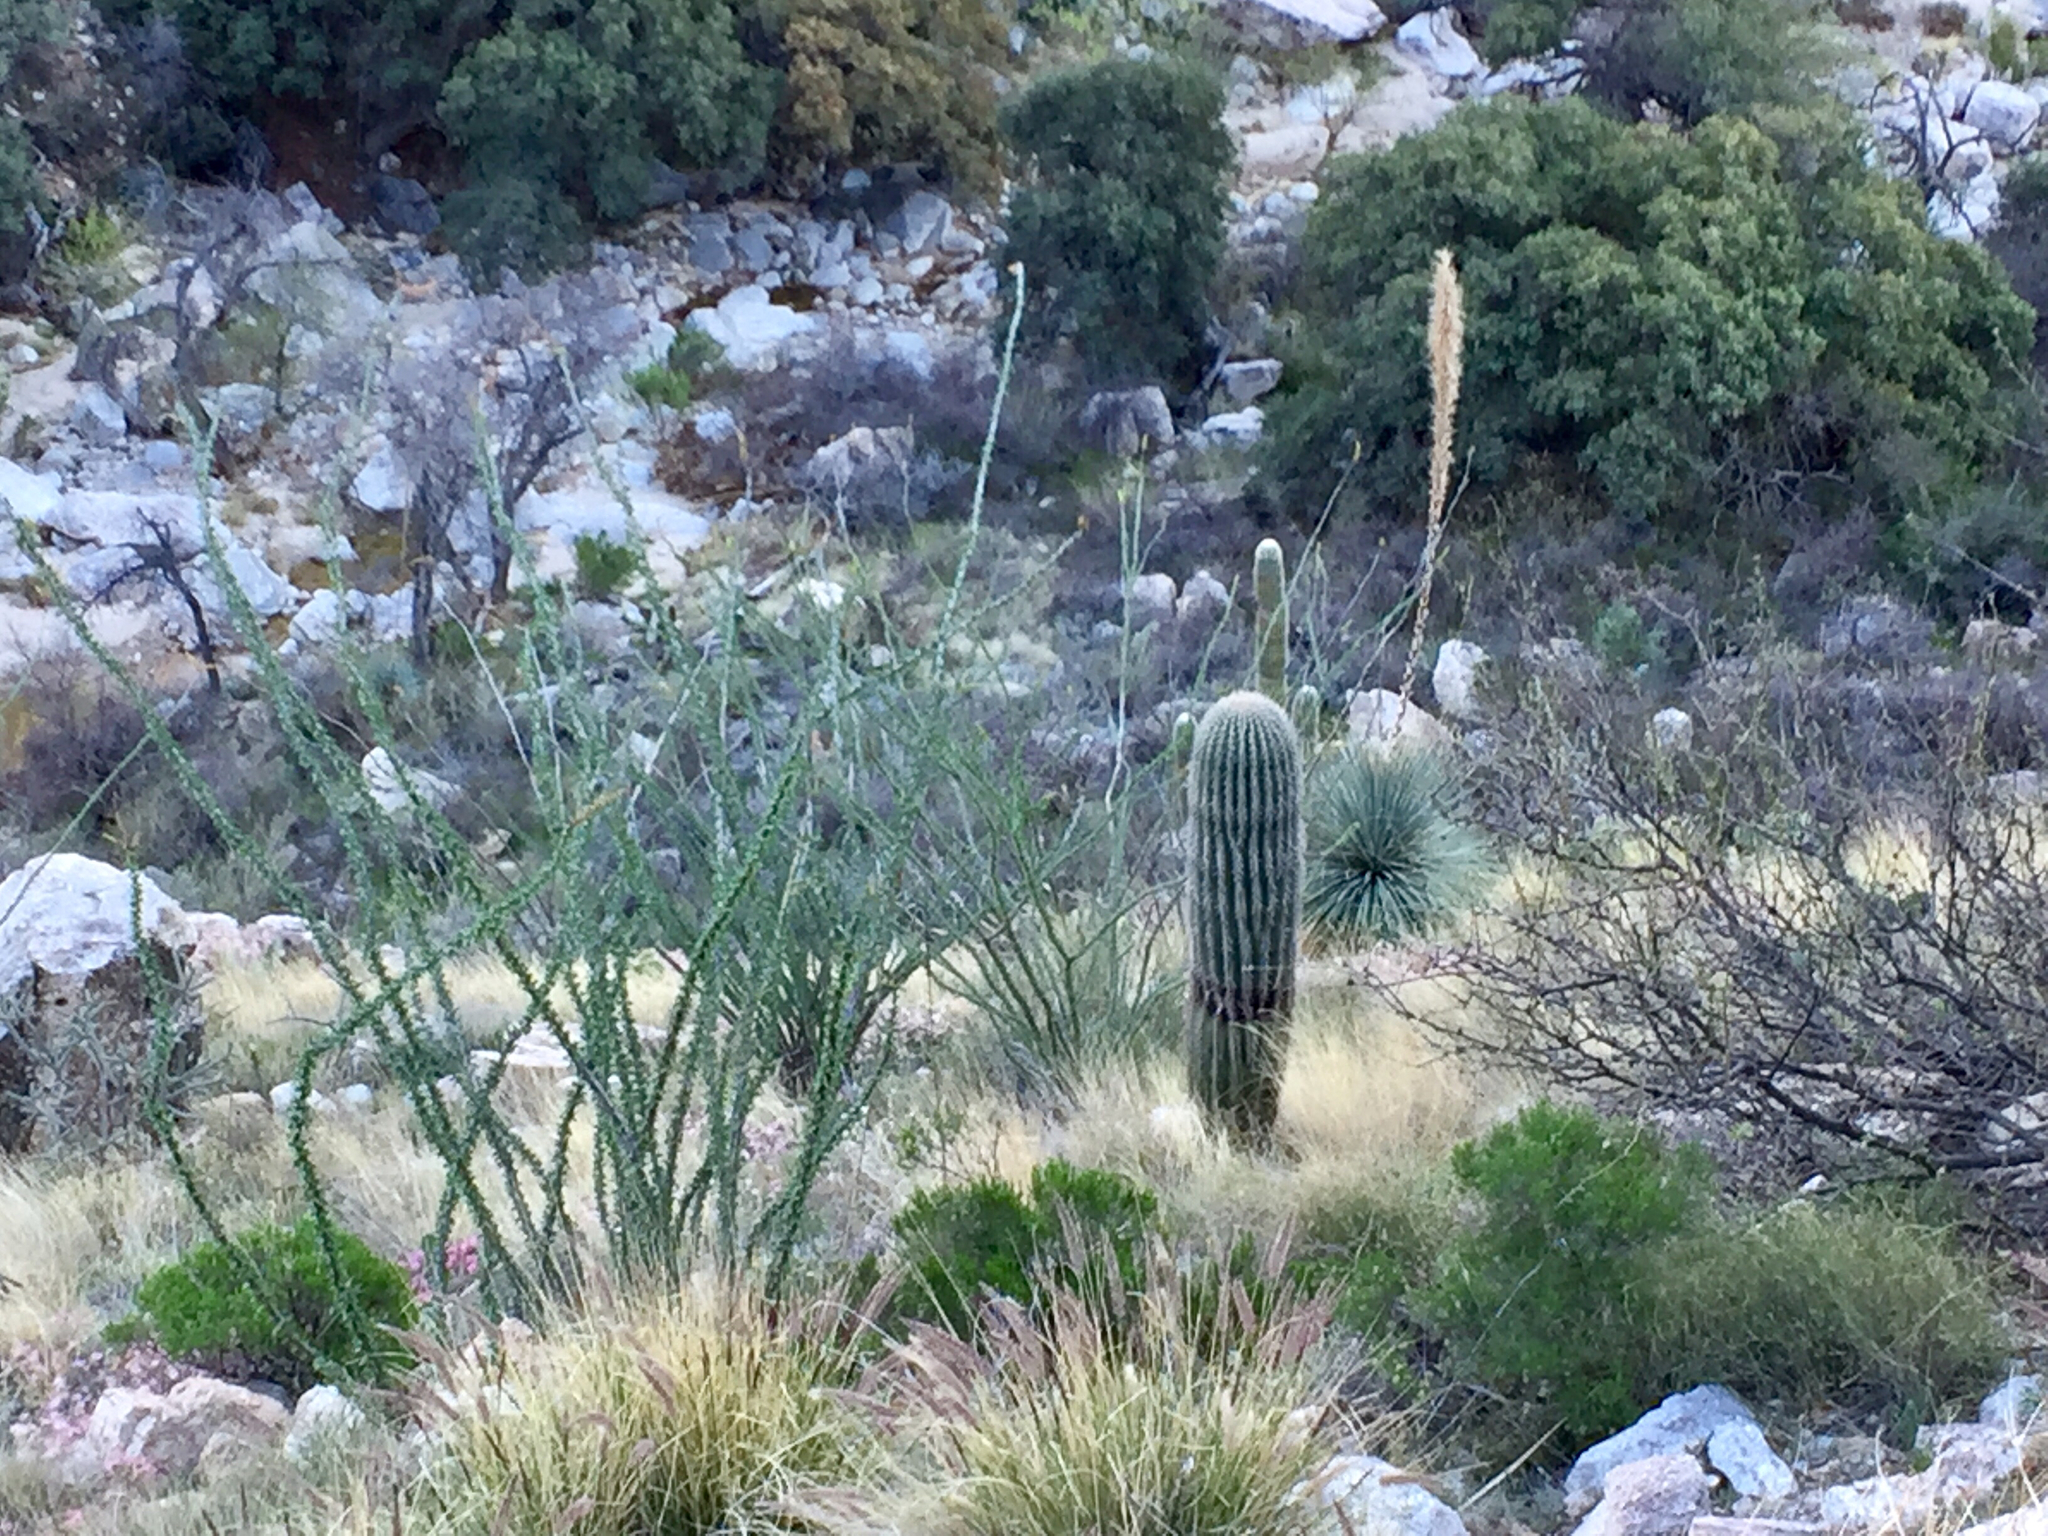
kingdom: Plantae
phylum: Tracheophyta
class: Magnoliopsida
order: Ericales
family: Fouquieriaceae
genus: Fouquieria
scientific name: Fouquieria splendens
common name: Vine-cactus
